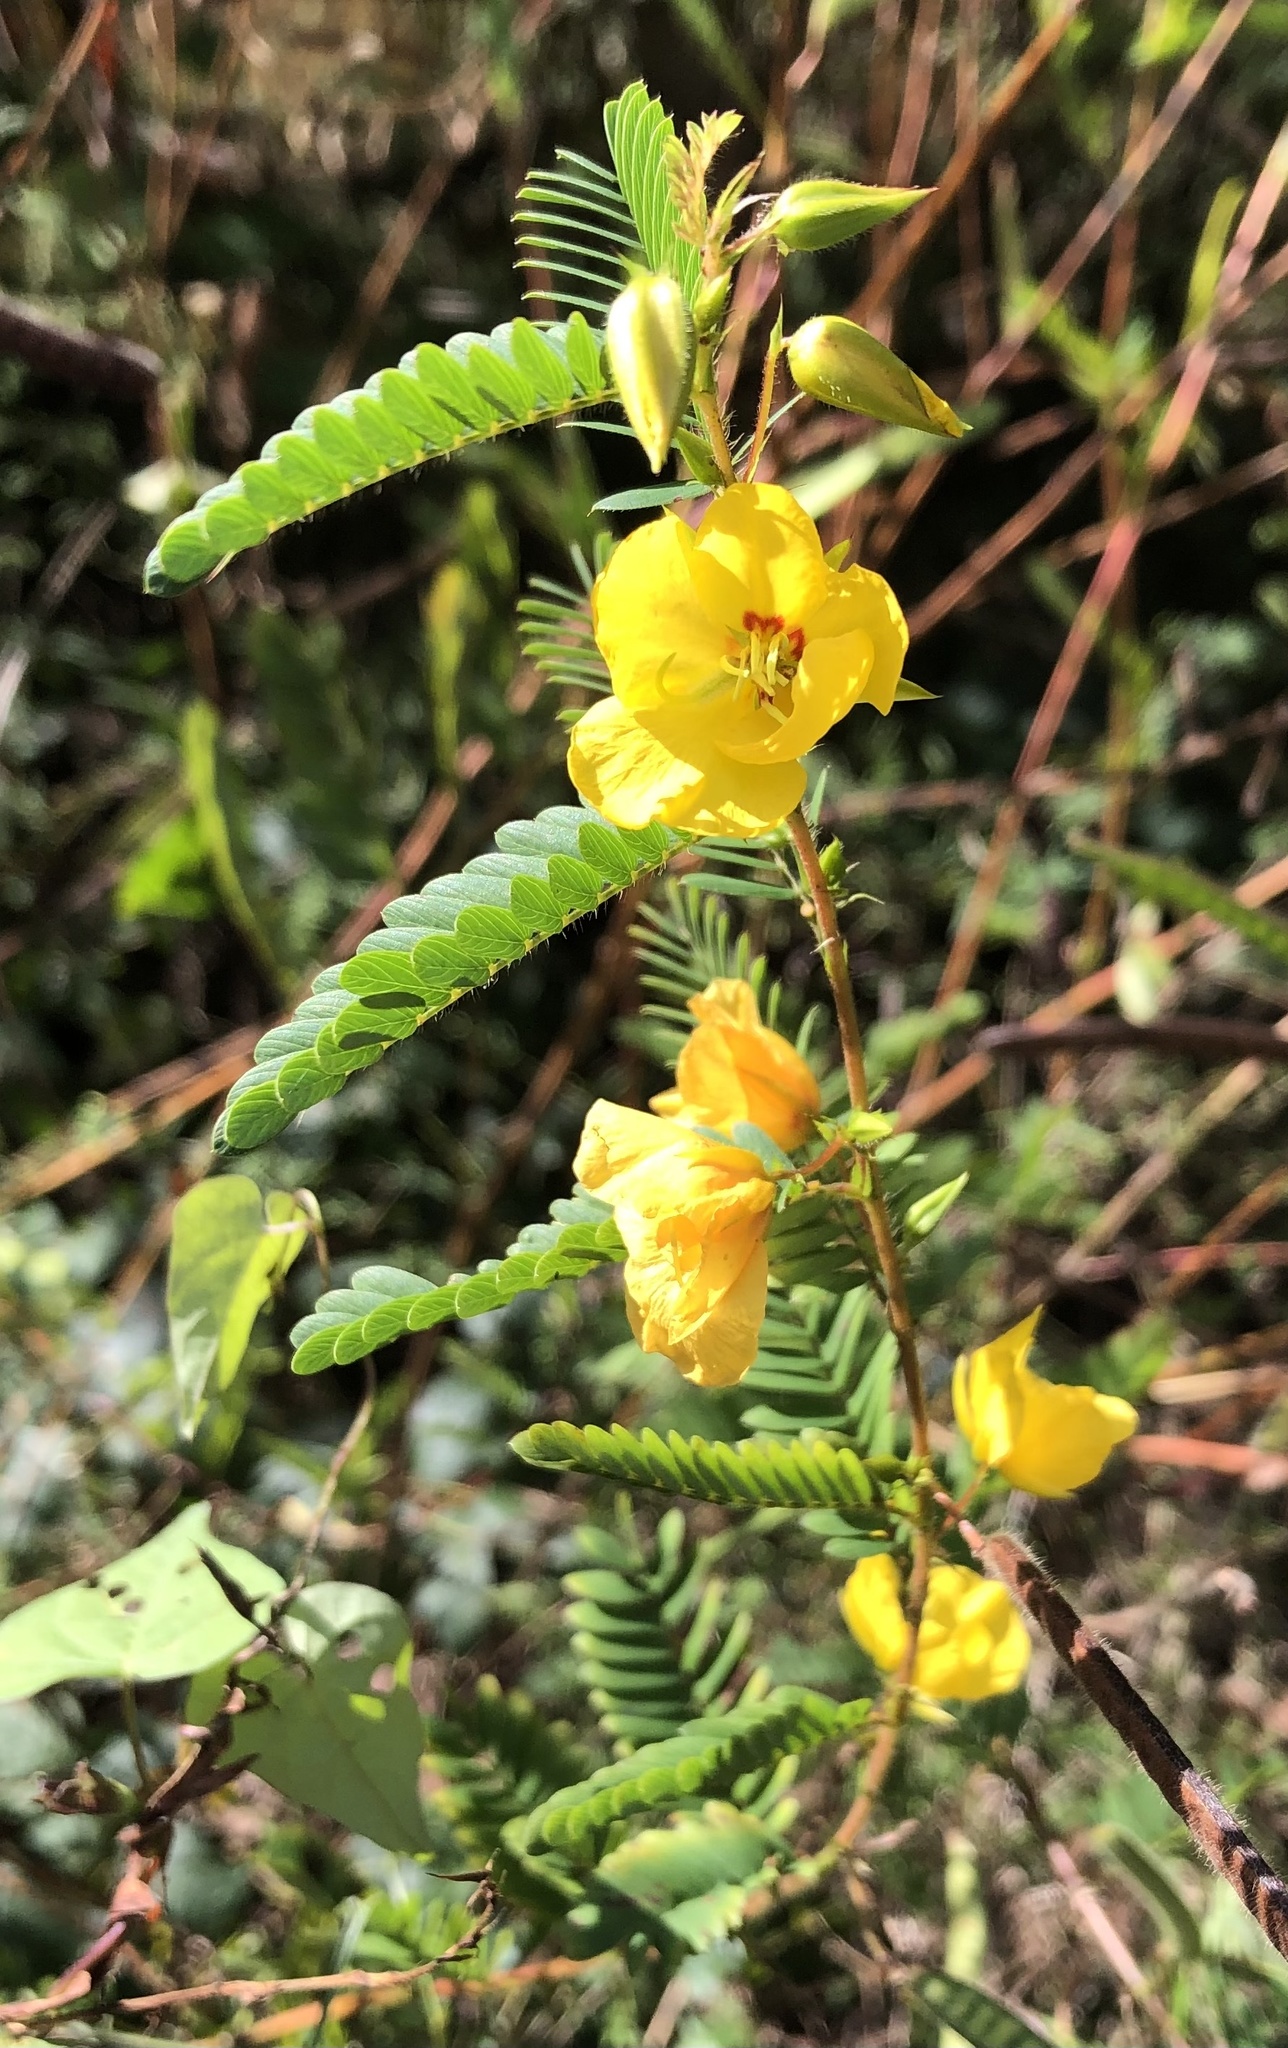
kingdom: Plantae
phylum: Tracheophyta
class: Magnoliopsida
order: Fabales
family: Fabaceae
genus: Chamaecrista
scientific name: Chamaecrista fasciculata
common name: Golden cassia
